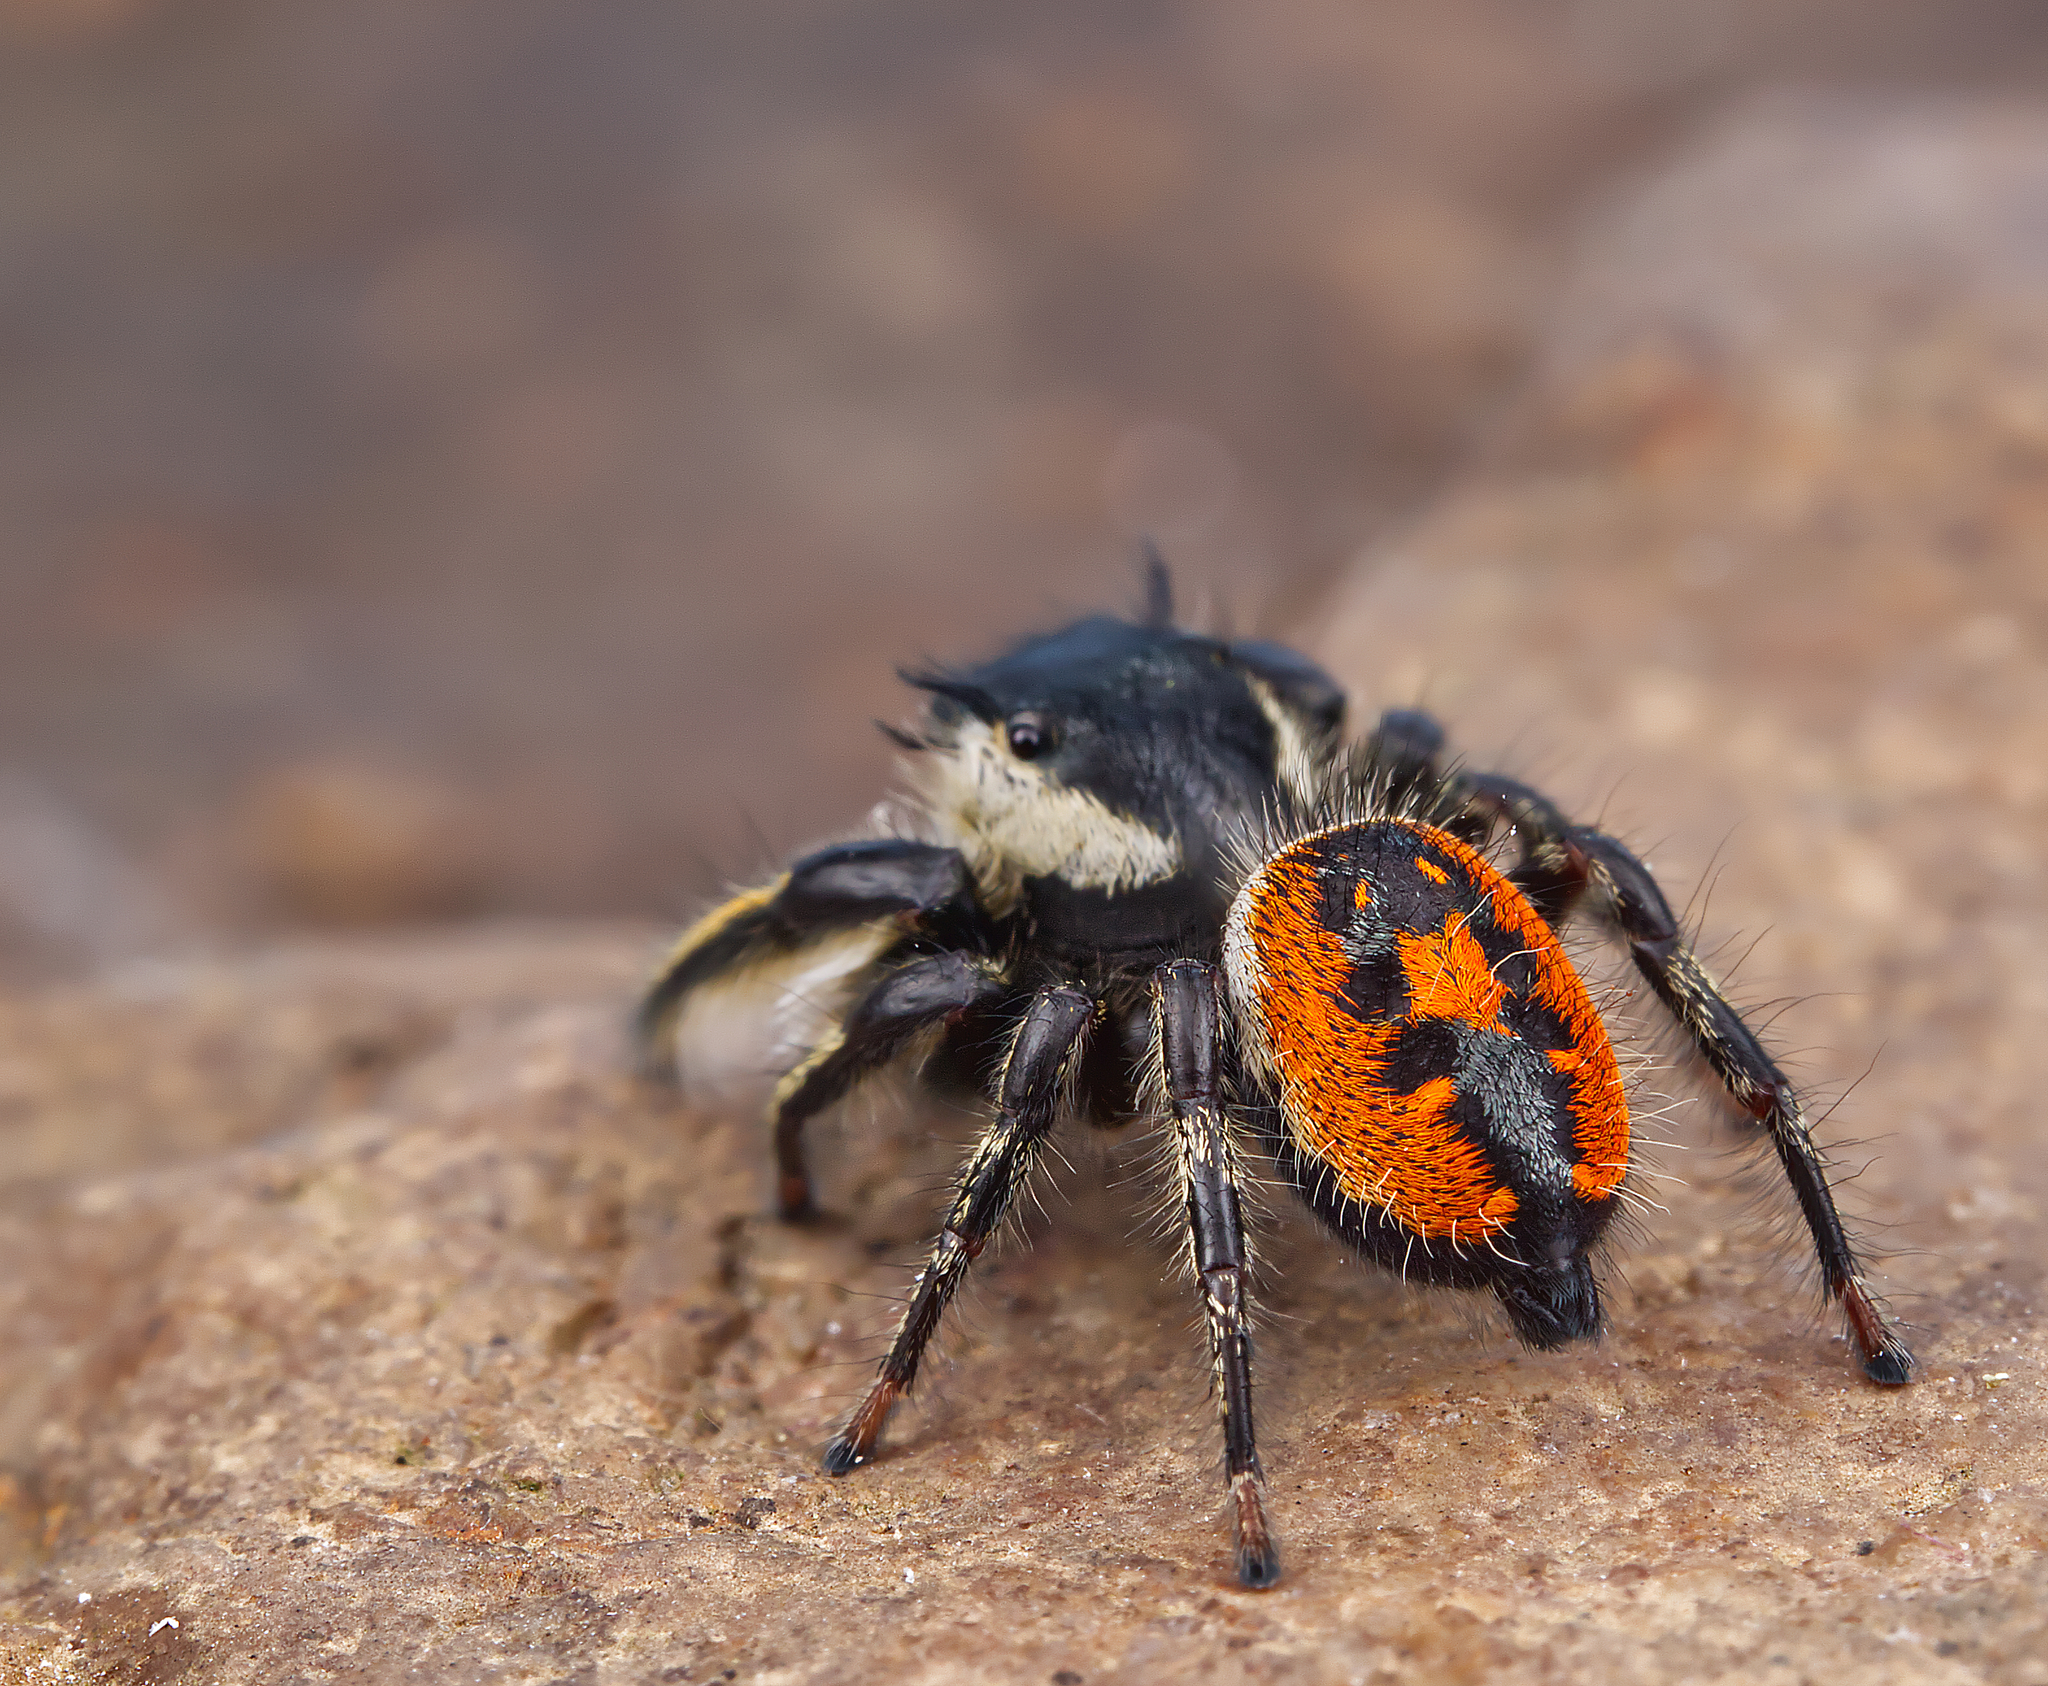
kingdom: Animalia
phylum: Arthropoda
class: Arachnida
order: Araneae
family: Salticidae
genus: Phidippus
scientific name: Phidippus insignarius
